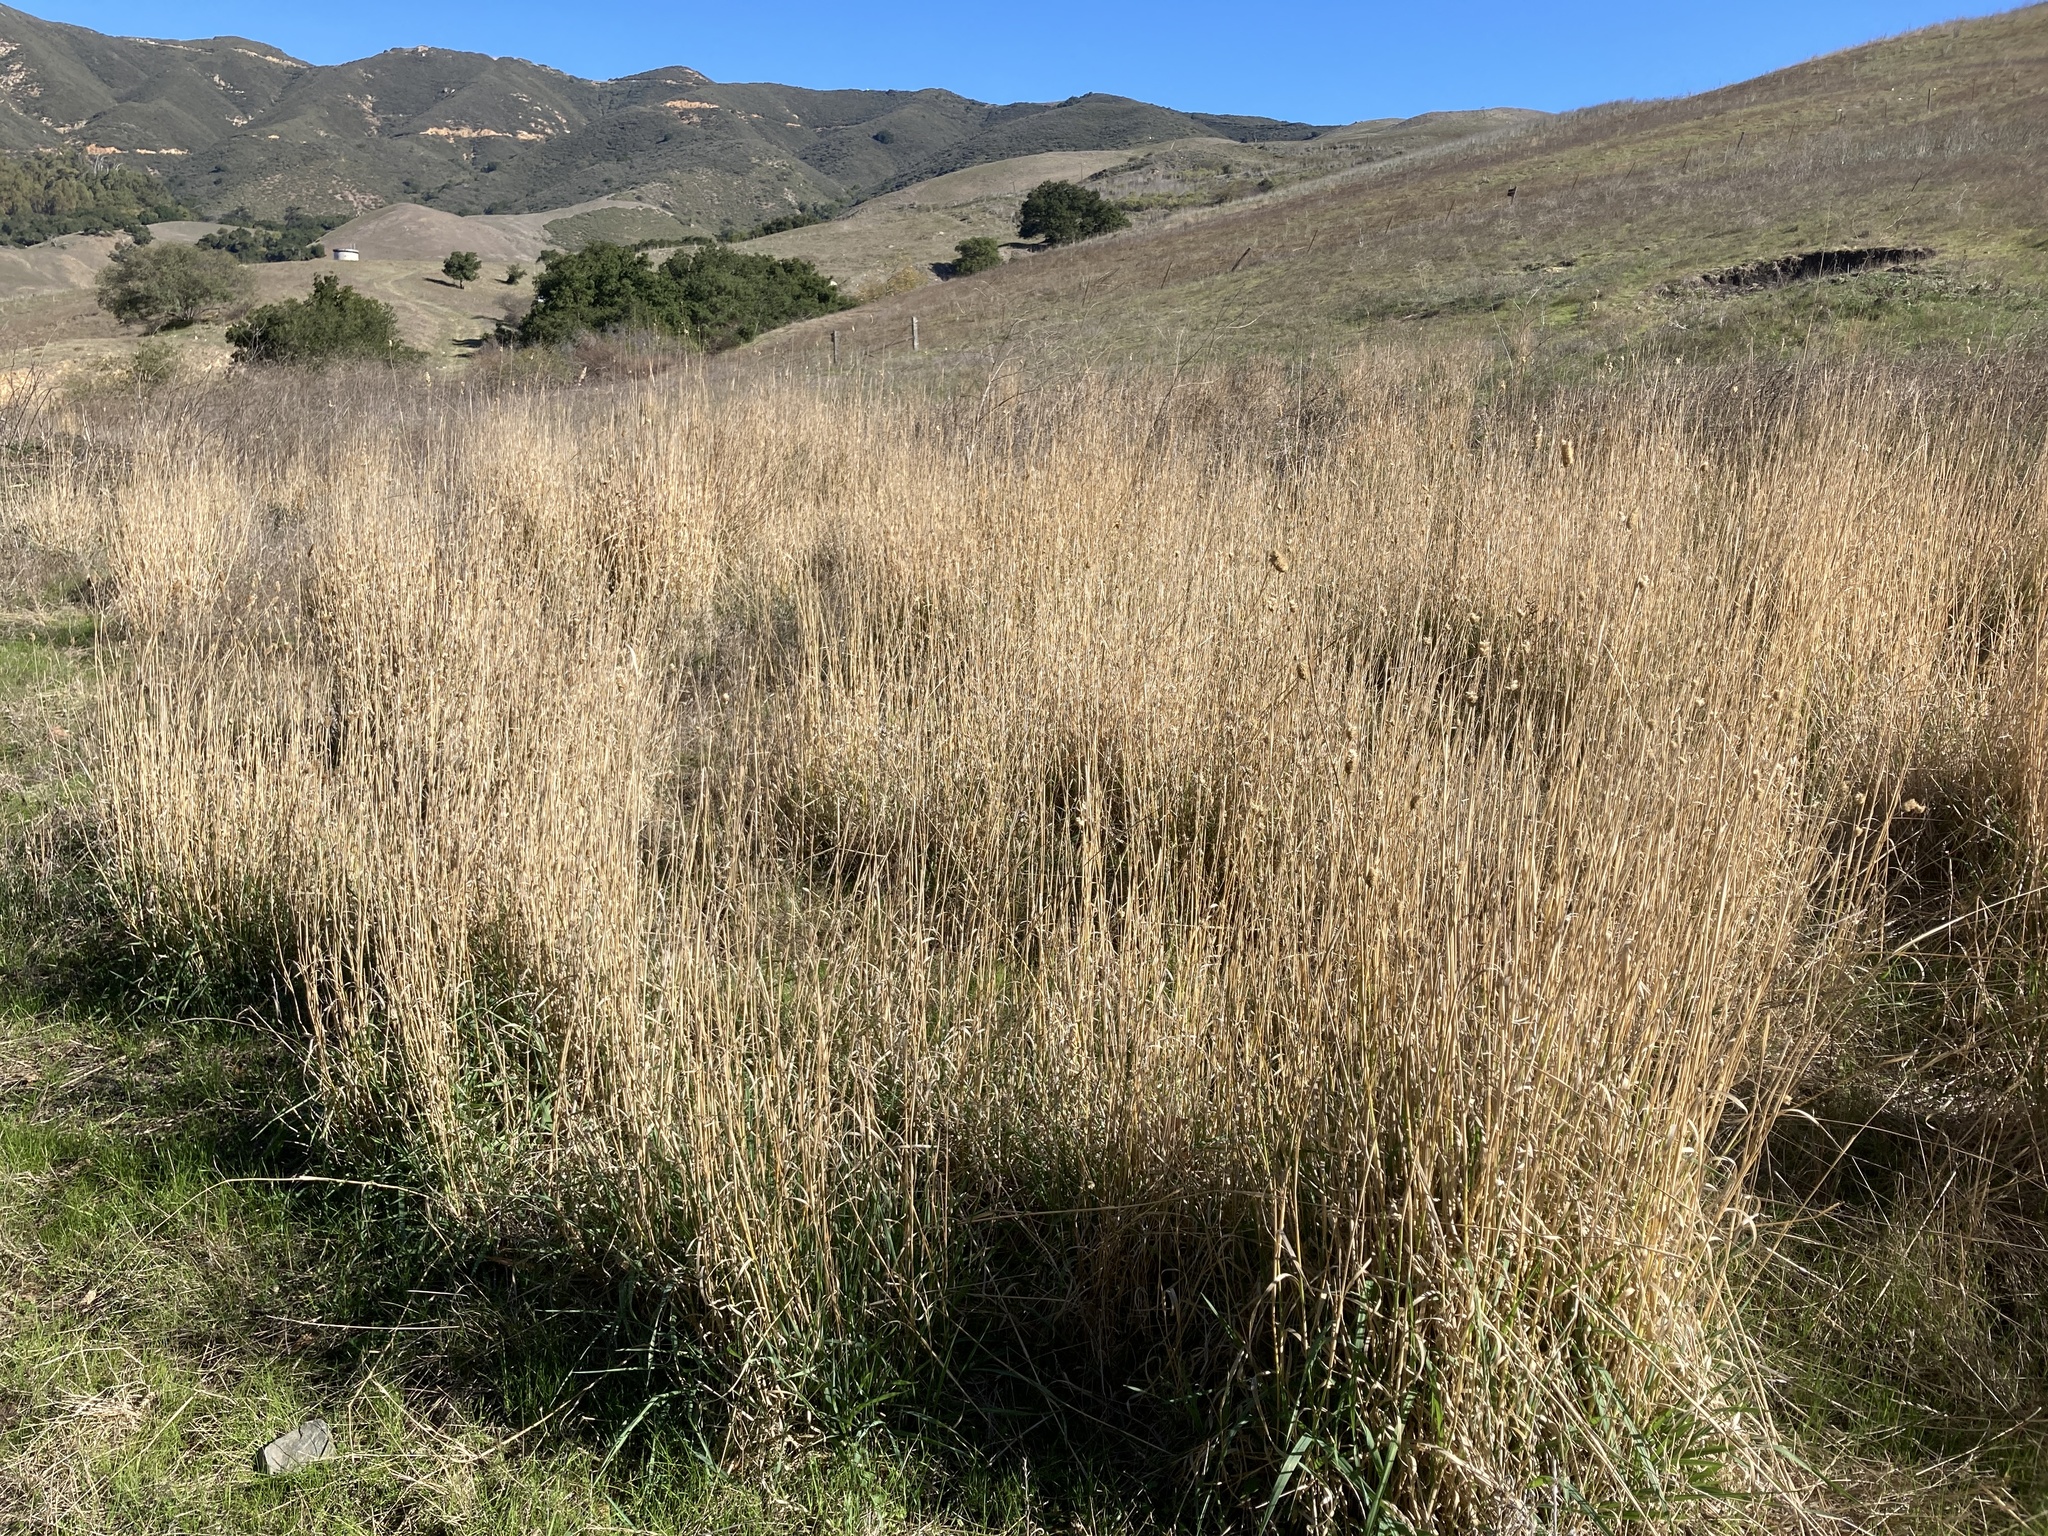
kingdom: Plantae
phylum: Tracheophyta
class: Liliopsida
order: Poales
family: Poaceae
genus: Phalaris
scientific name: Phalaris aquatica
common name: Bulbous canary-grass
